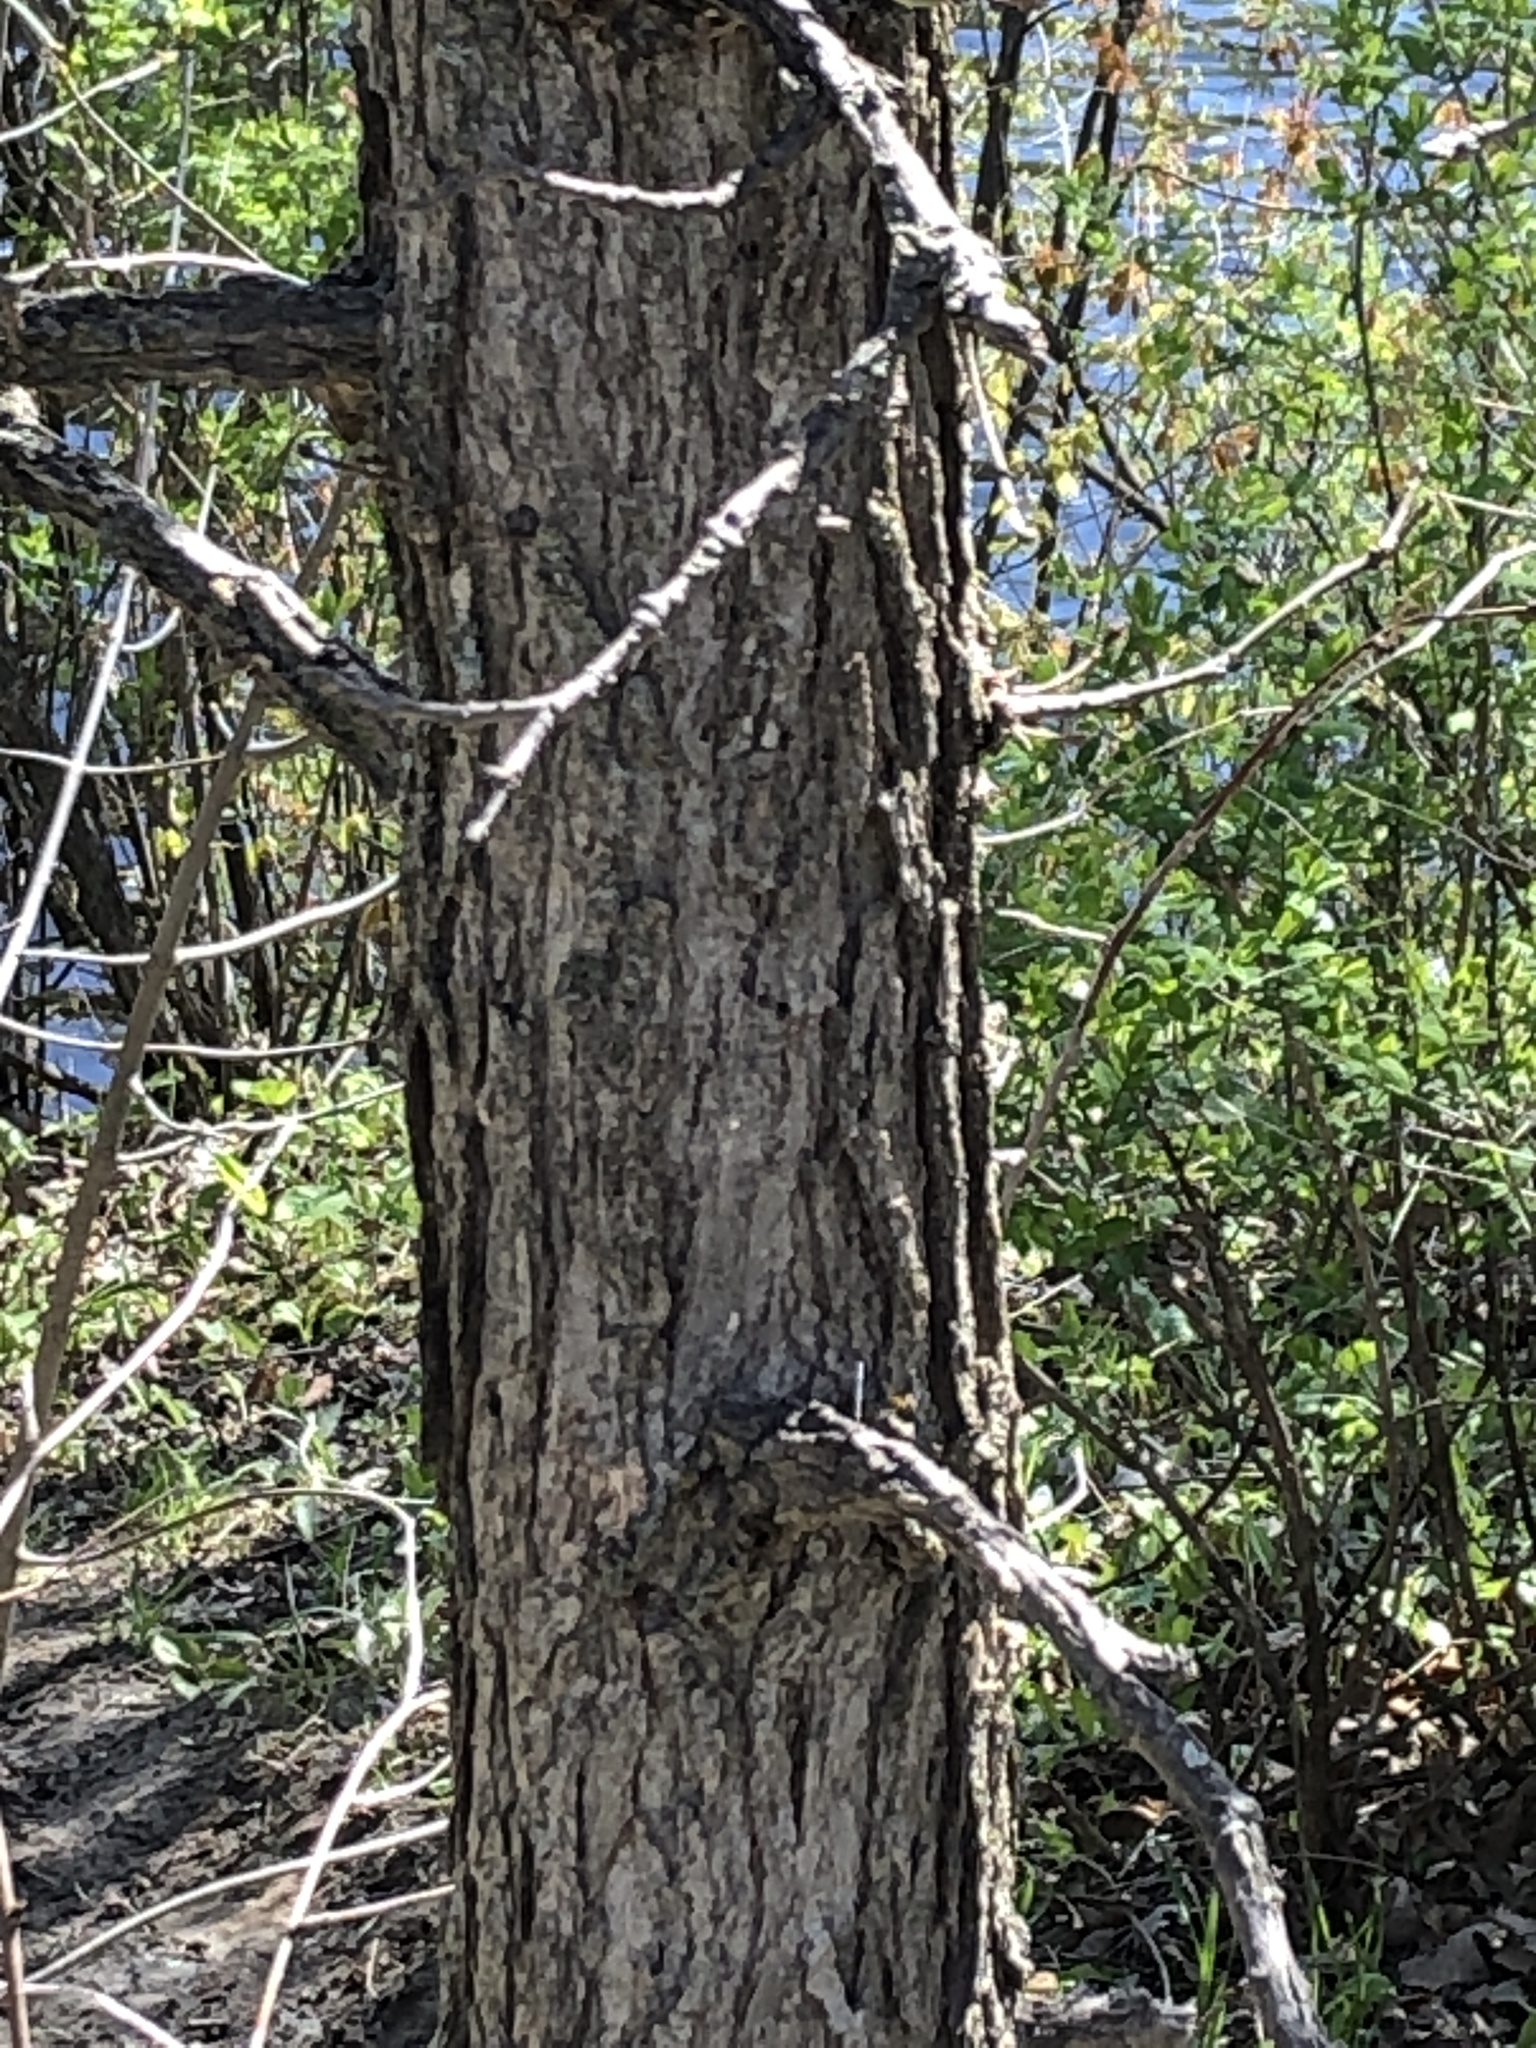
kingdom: Plantae
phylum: Tracheophyta
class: Magnoliopsida
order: Fagales
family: Fagaceae
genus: Quercus
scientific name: Quercus macrocarpa
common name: Bur oak
